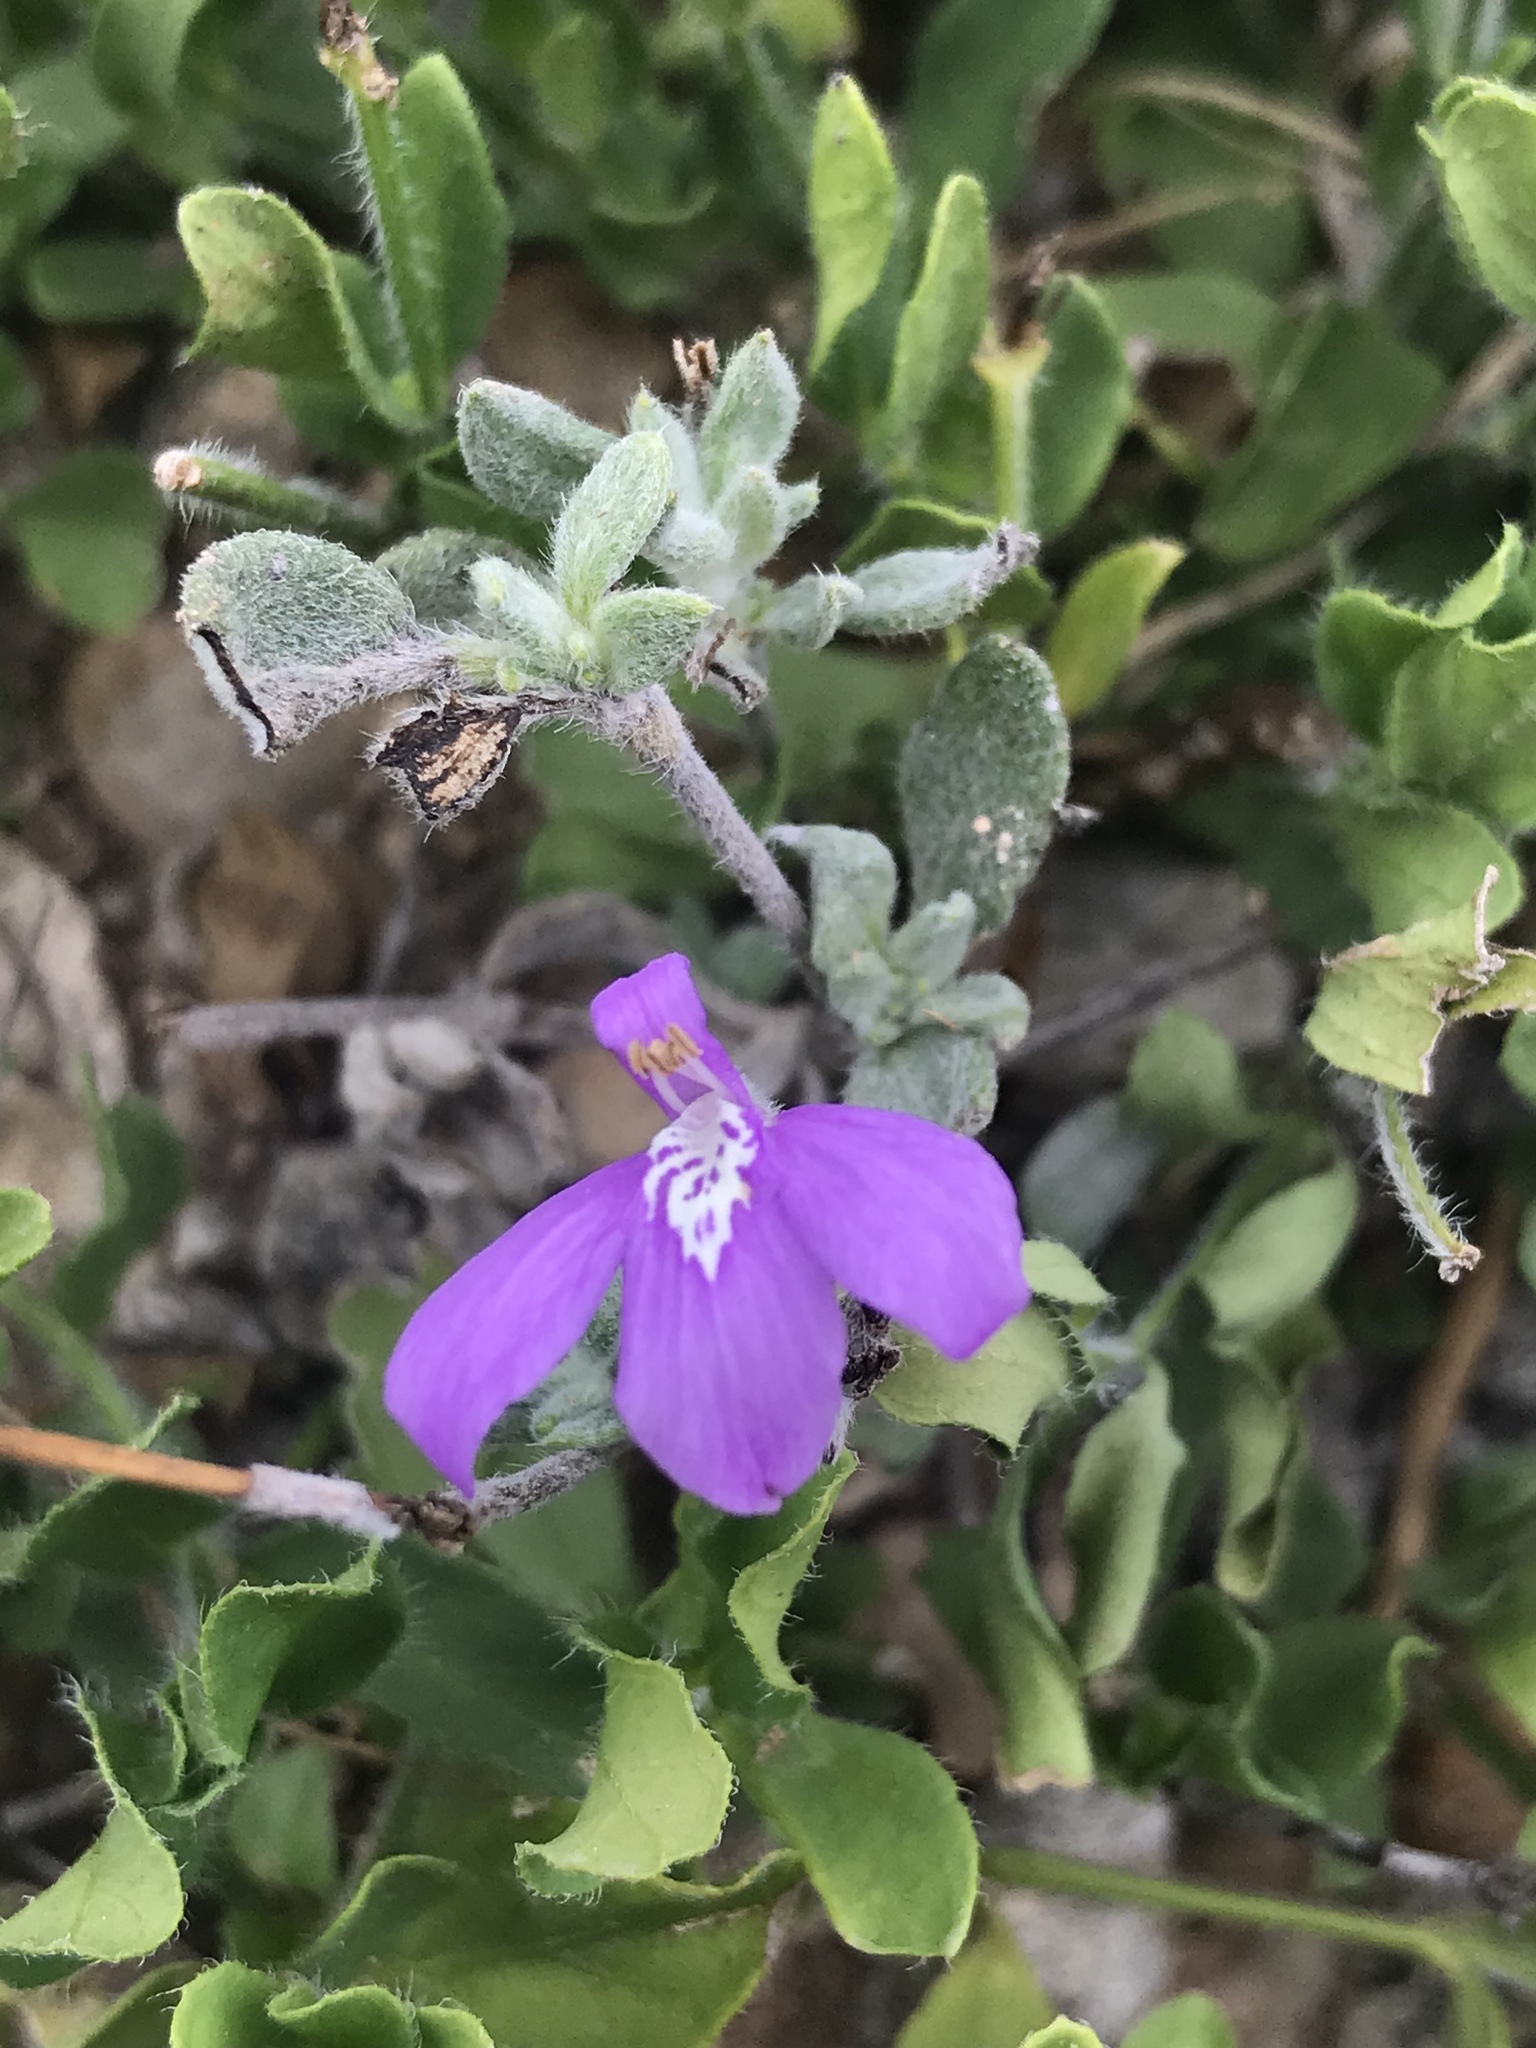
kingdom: Plantae
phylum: Tracheophyta
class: Magnoliopsida
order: Lamiales
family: Acanthaceae
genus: Justicia
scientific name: Justicia pilosella
